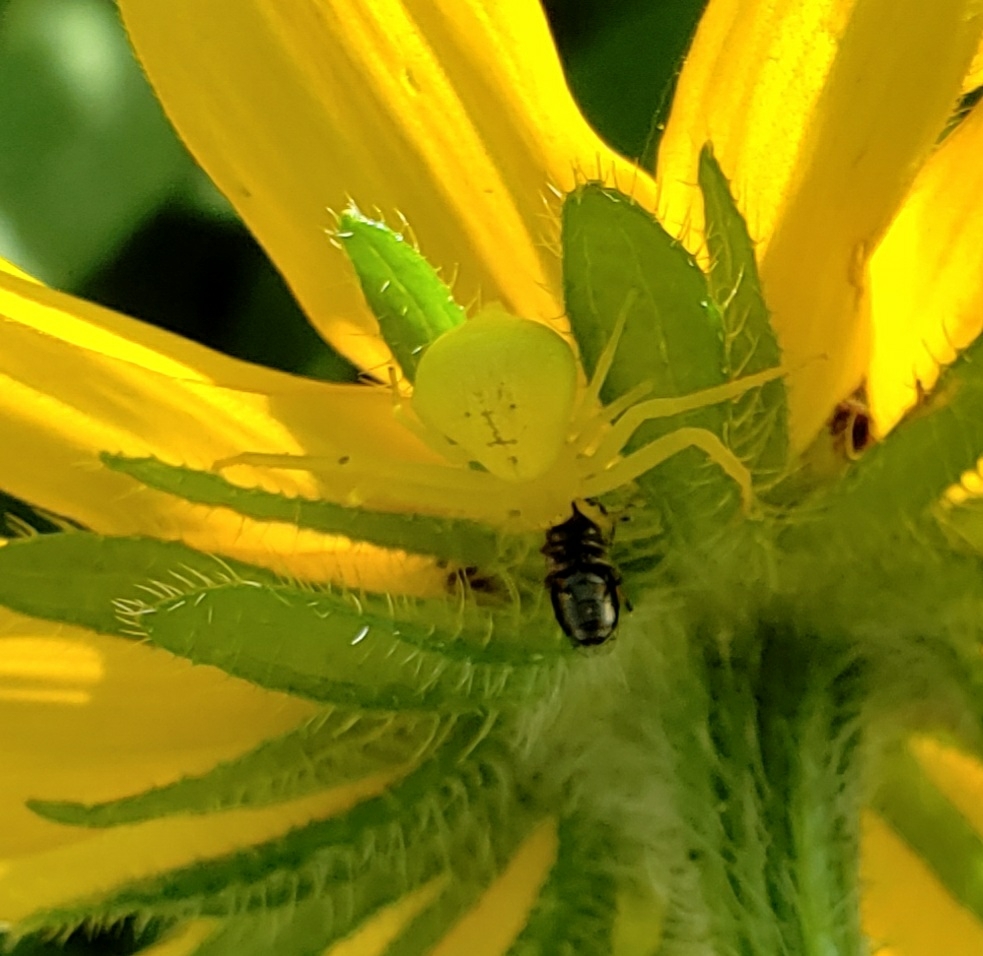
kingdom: Animalia
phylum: Arthropoda
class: Arachnida
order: Araneae
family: Thomisidae
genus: Misumessus
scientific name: Misumessus oblongus
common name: American green crab spider
